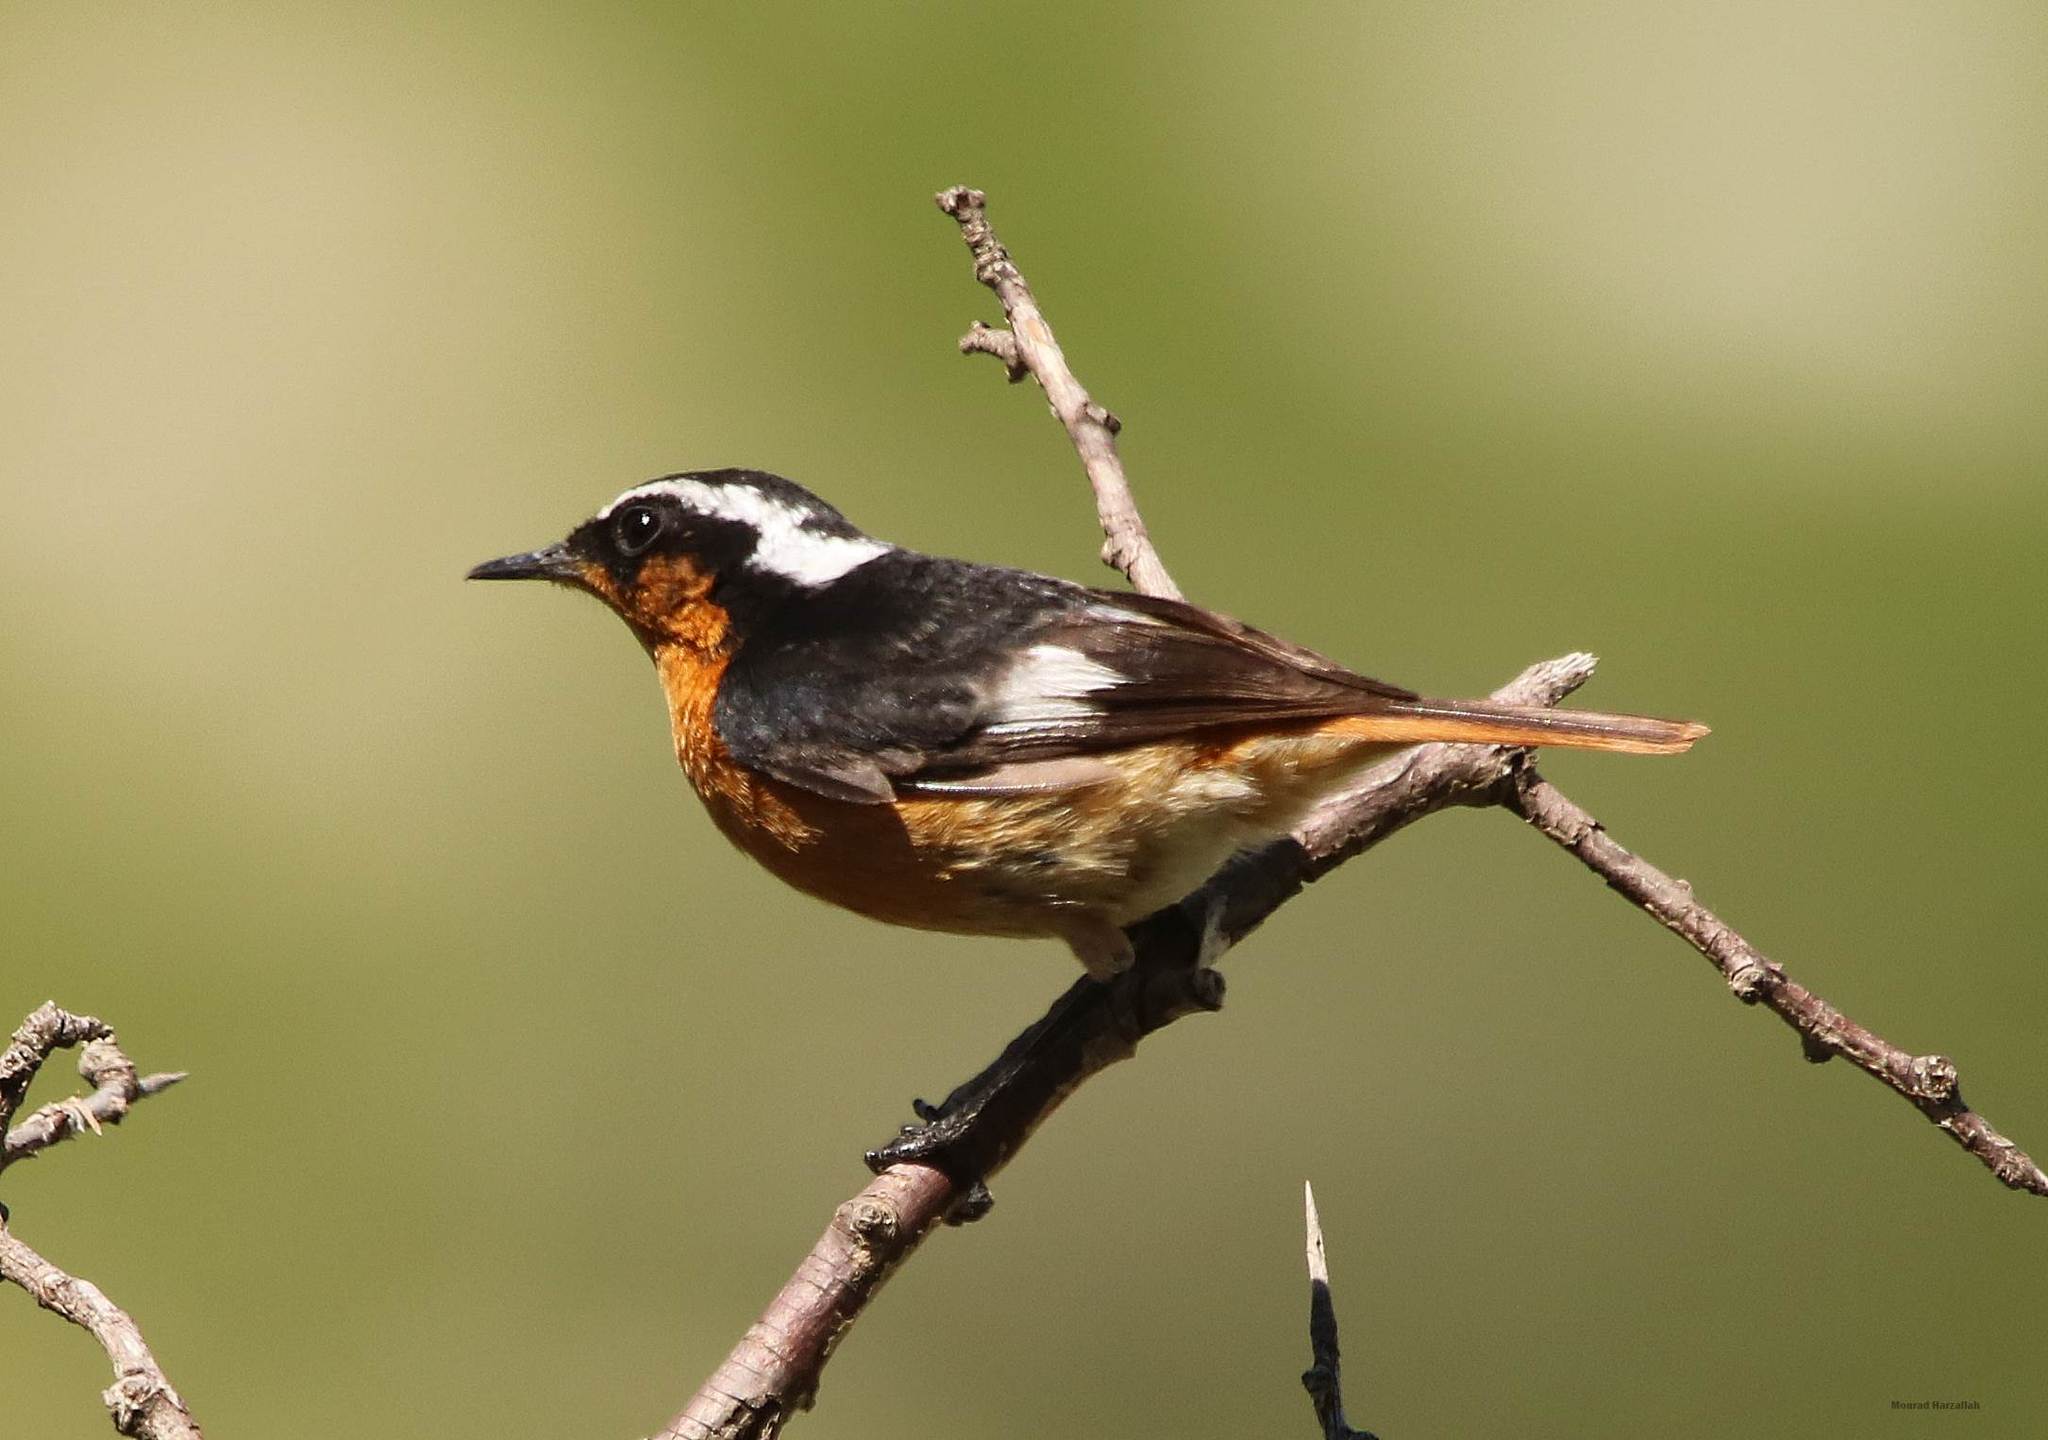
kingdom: Animalia
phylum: Chordata
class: Aves
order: Passeriformes
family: Muscicapidae
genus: Phoenicurus
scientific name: Phoenicurus moussieri
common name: Moussier's redstart
